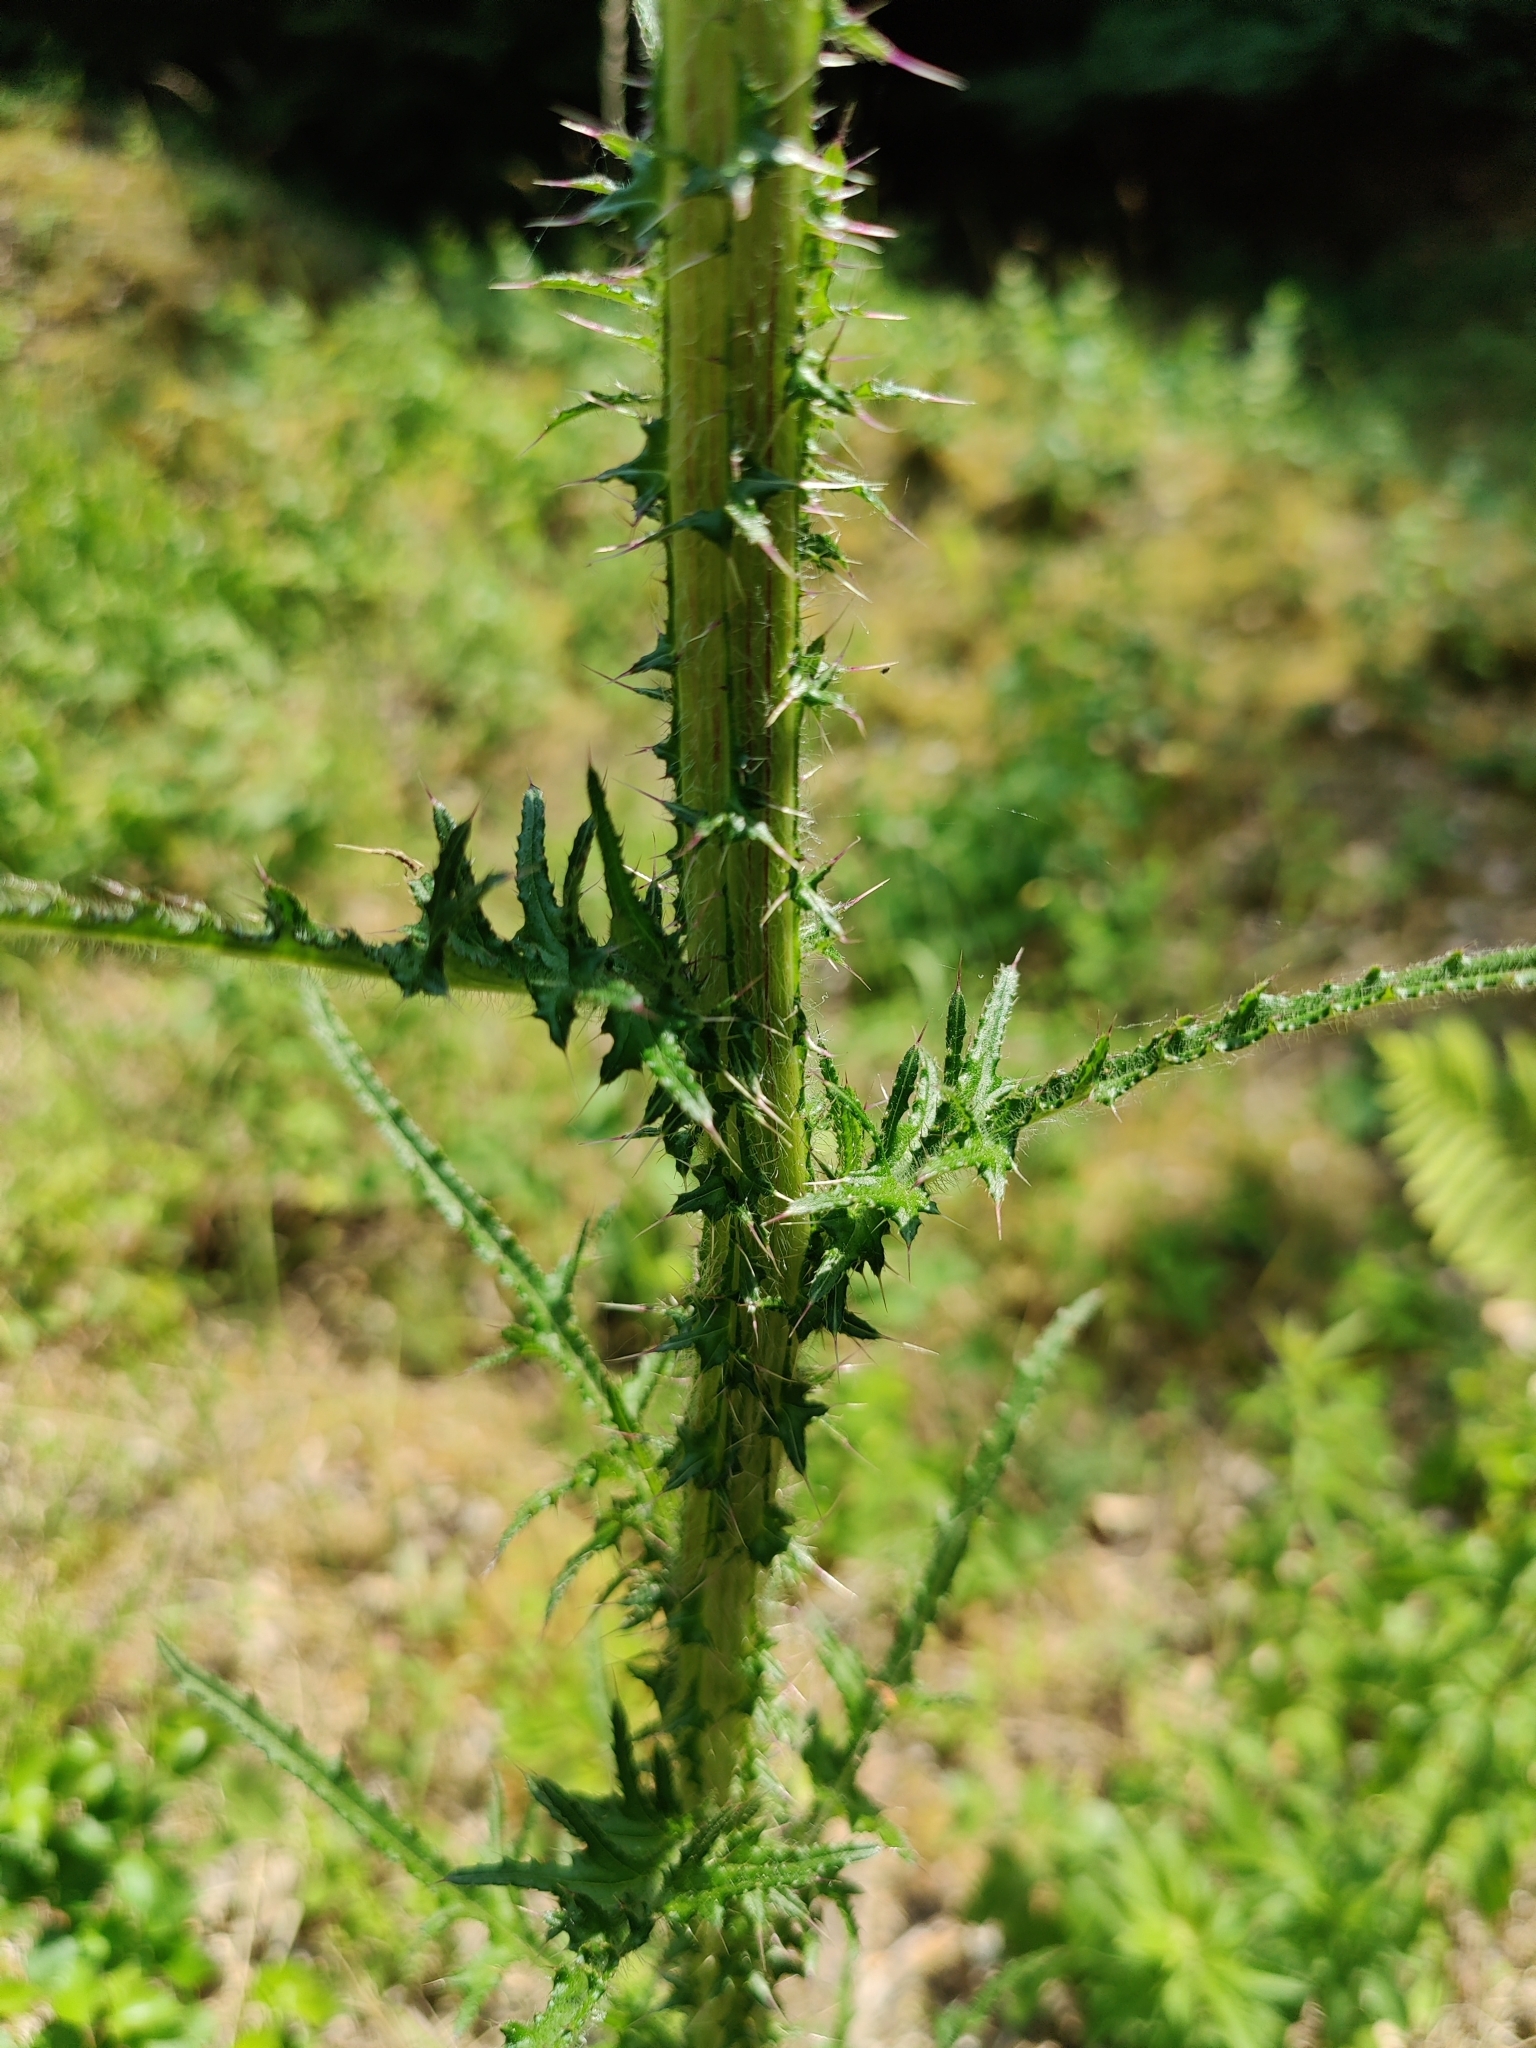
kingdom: Plantae
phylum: Tracheophyta
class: Magnoliopsida
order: Asterales
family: Asteraceae
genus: Cirsium
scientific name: Cirsium palustre
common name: Marsh thistle
